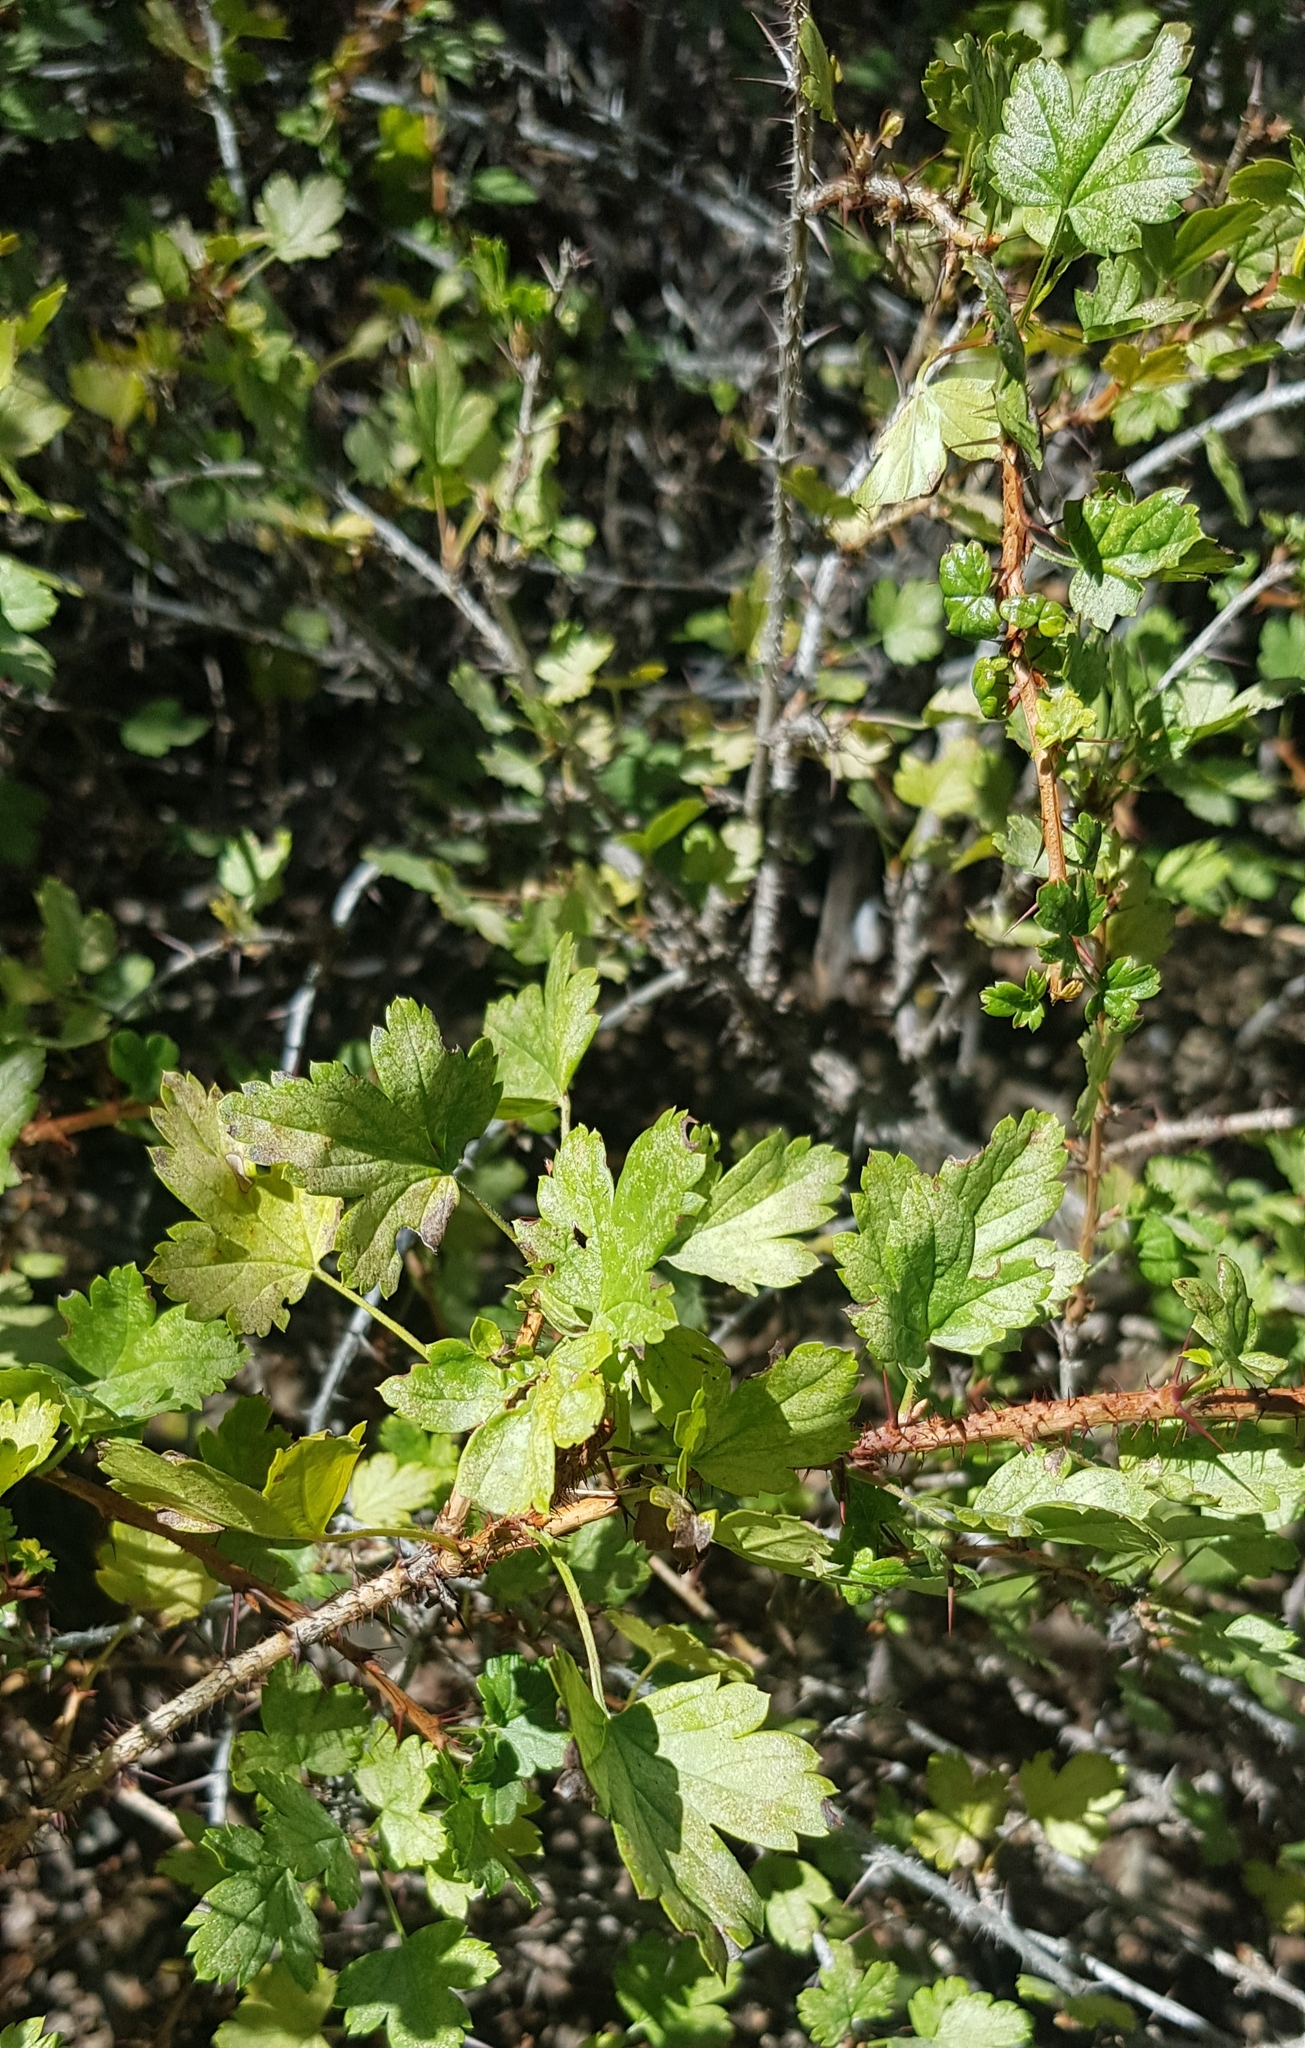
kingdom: Plantae
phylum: Tracheophyta
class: Magnoliopsida
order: Saxifragales
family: Grossulariaceae
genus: Ribes
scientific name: Ribes aciculare
